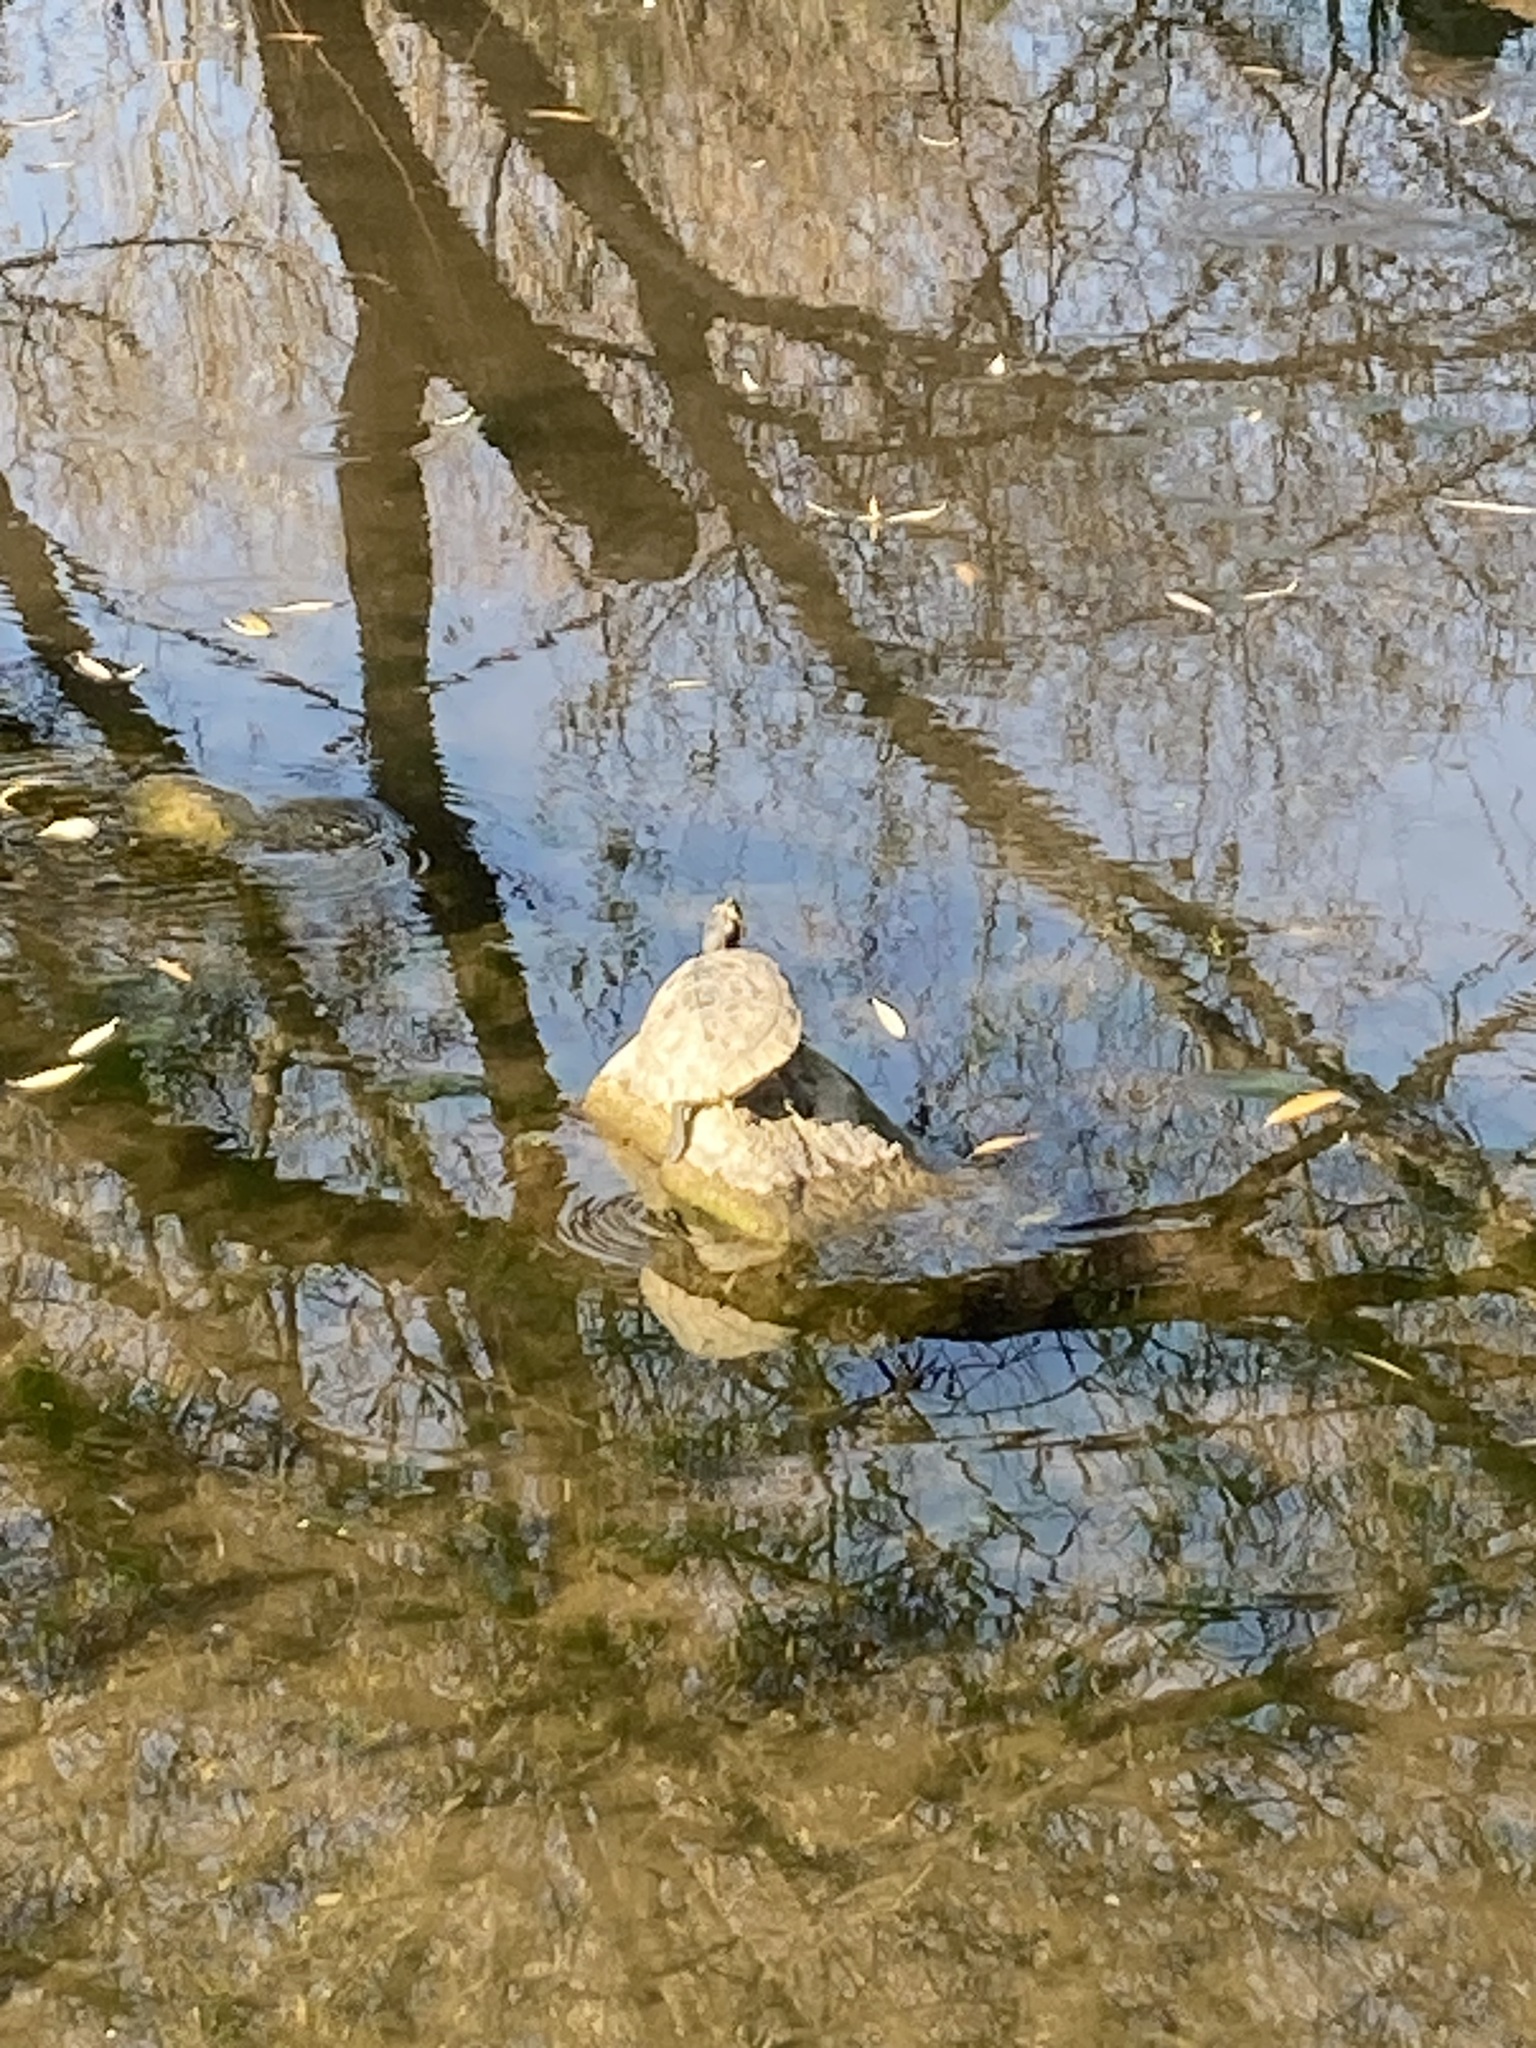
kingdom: Animalia
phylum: Chordata
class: Testudines
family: Emydidae
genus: Trachemys
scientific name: Trachemys scripta
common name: Slider
